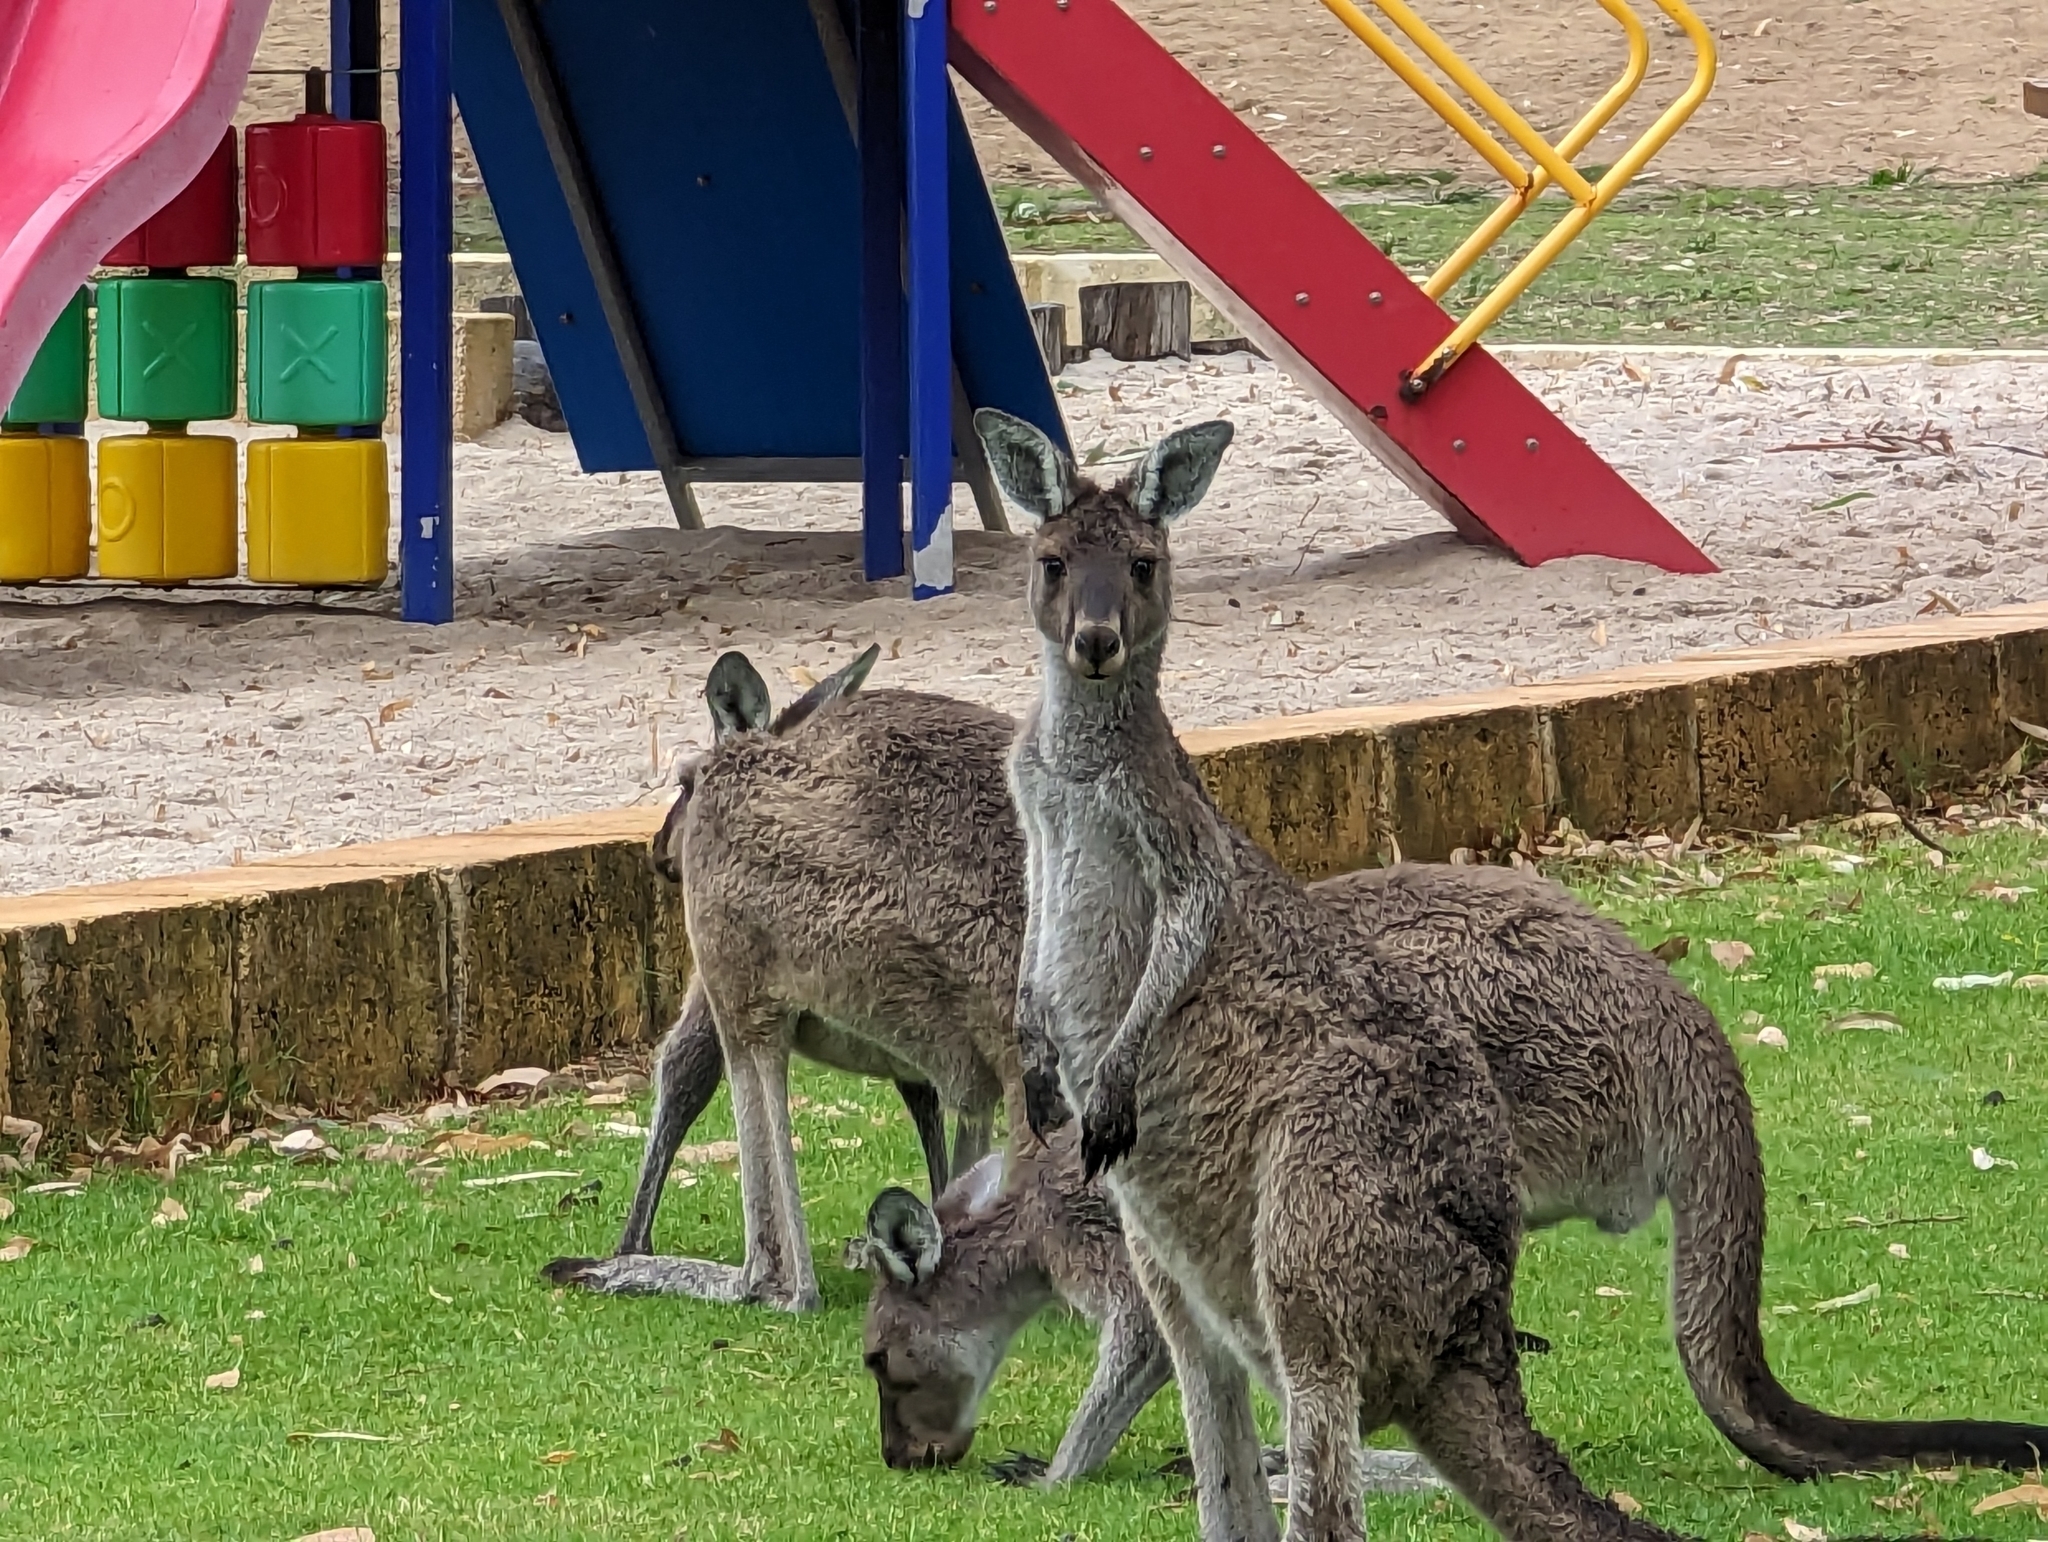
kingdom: Animalia
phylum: Chordata
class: Mammalia
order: Diprotodontia
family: Macropodidae
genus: Macropus
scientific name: Macropus fuliginosus
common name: Western grey kangaroo
